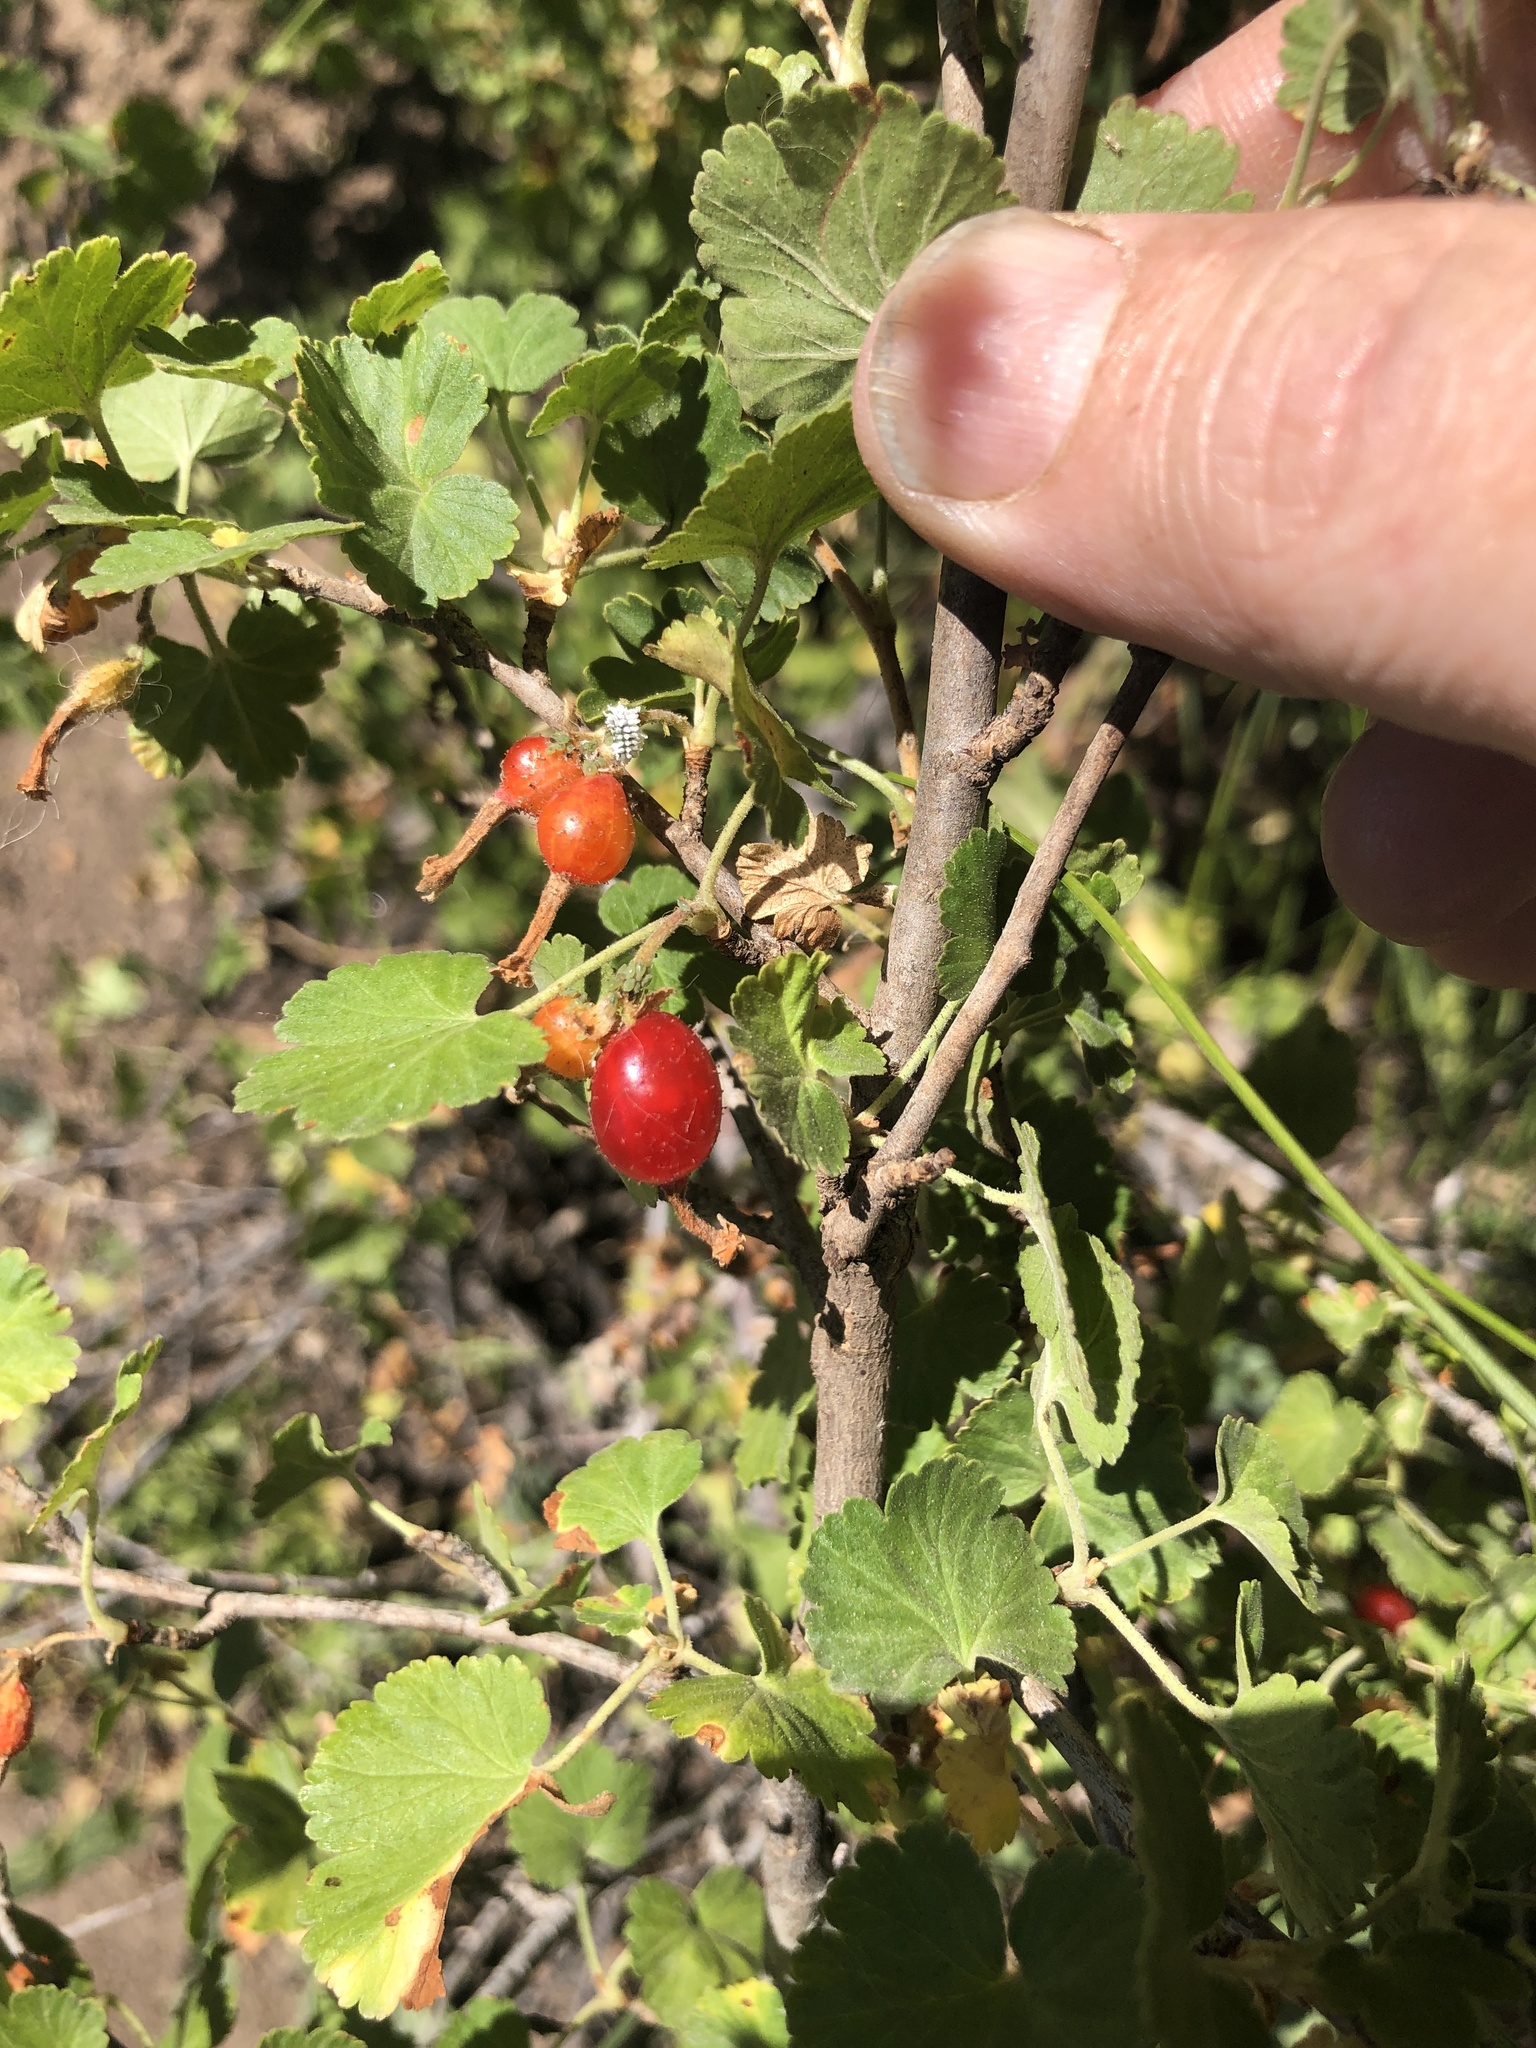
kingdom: Plantae
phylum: Tracheophyta
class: Magnoliopsida
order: Saxifragales
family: Grossulariaceae
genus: Ribes
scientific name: Ribes cereum
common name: Wax currant
